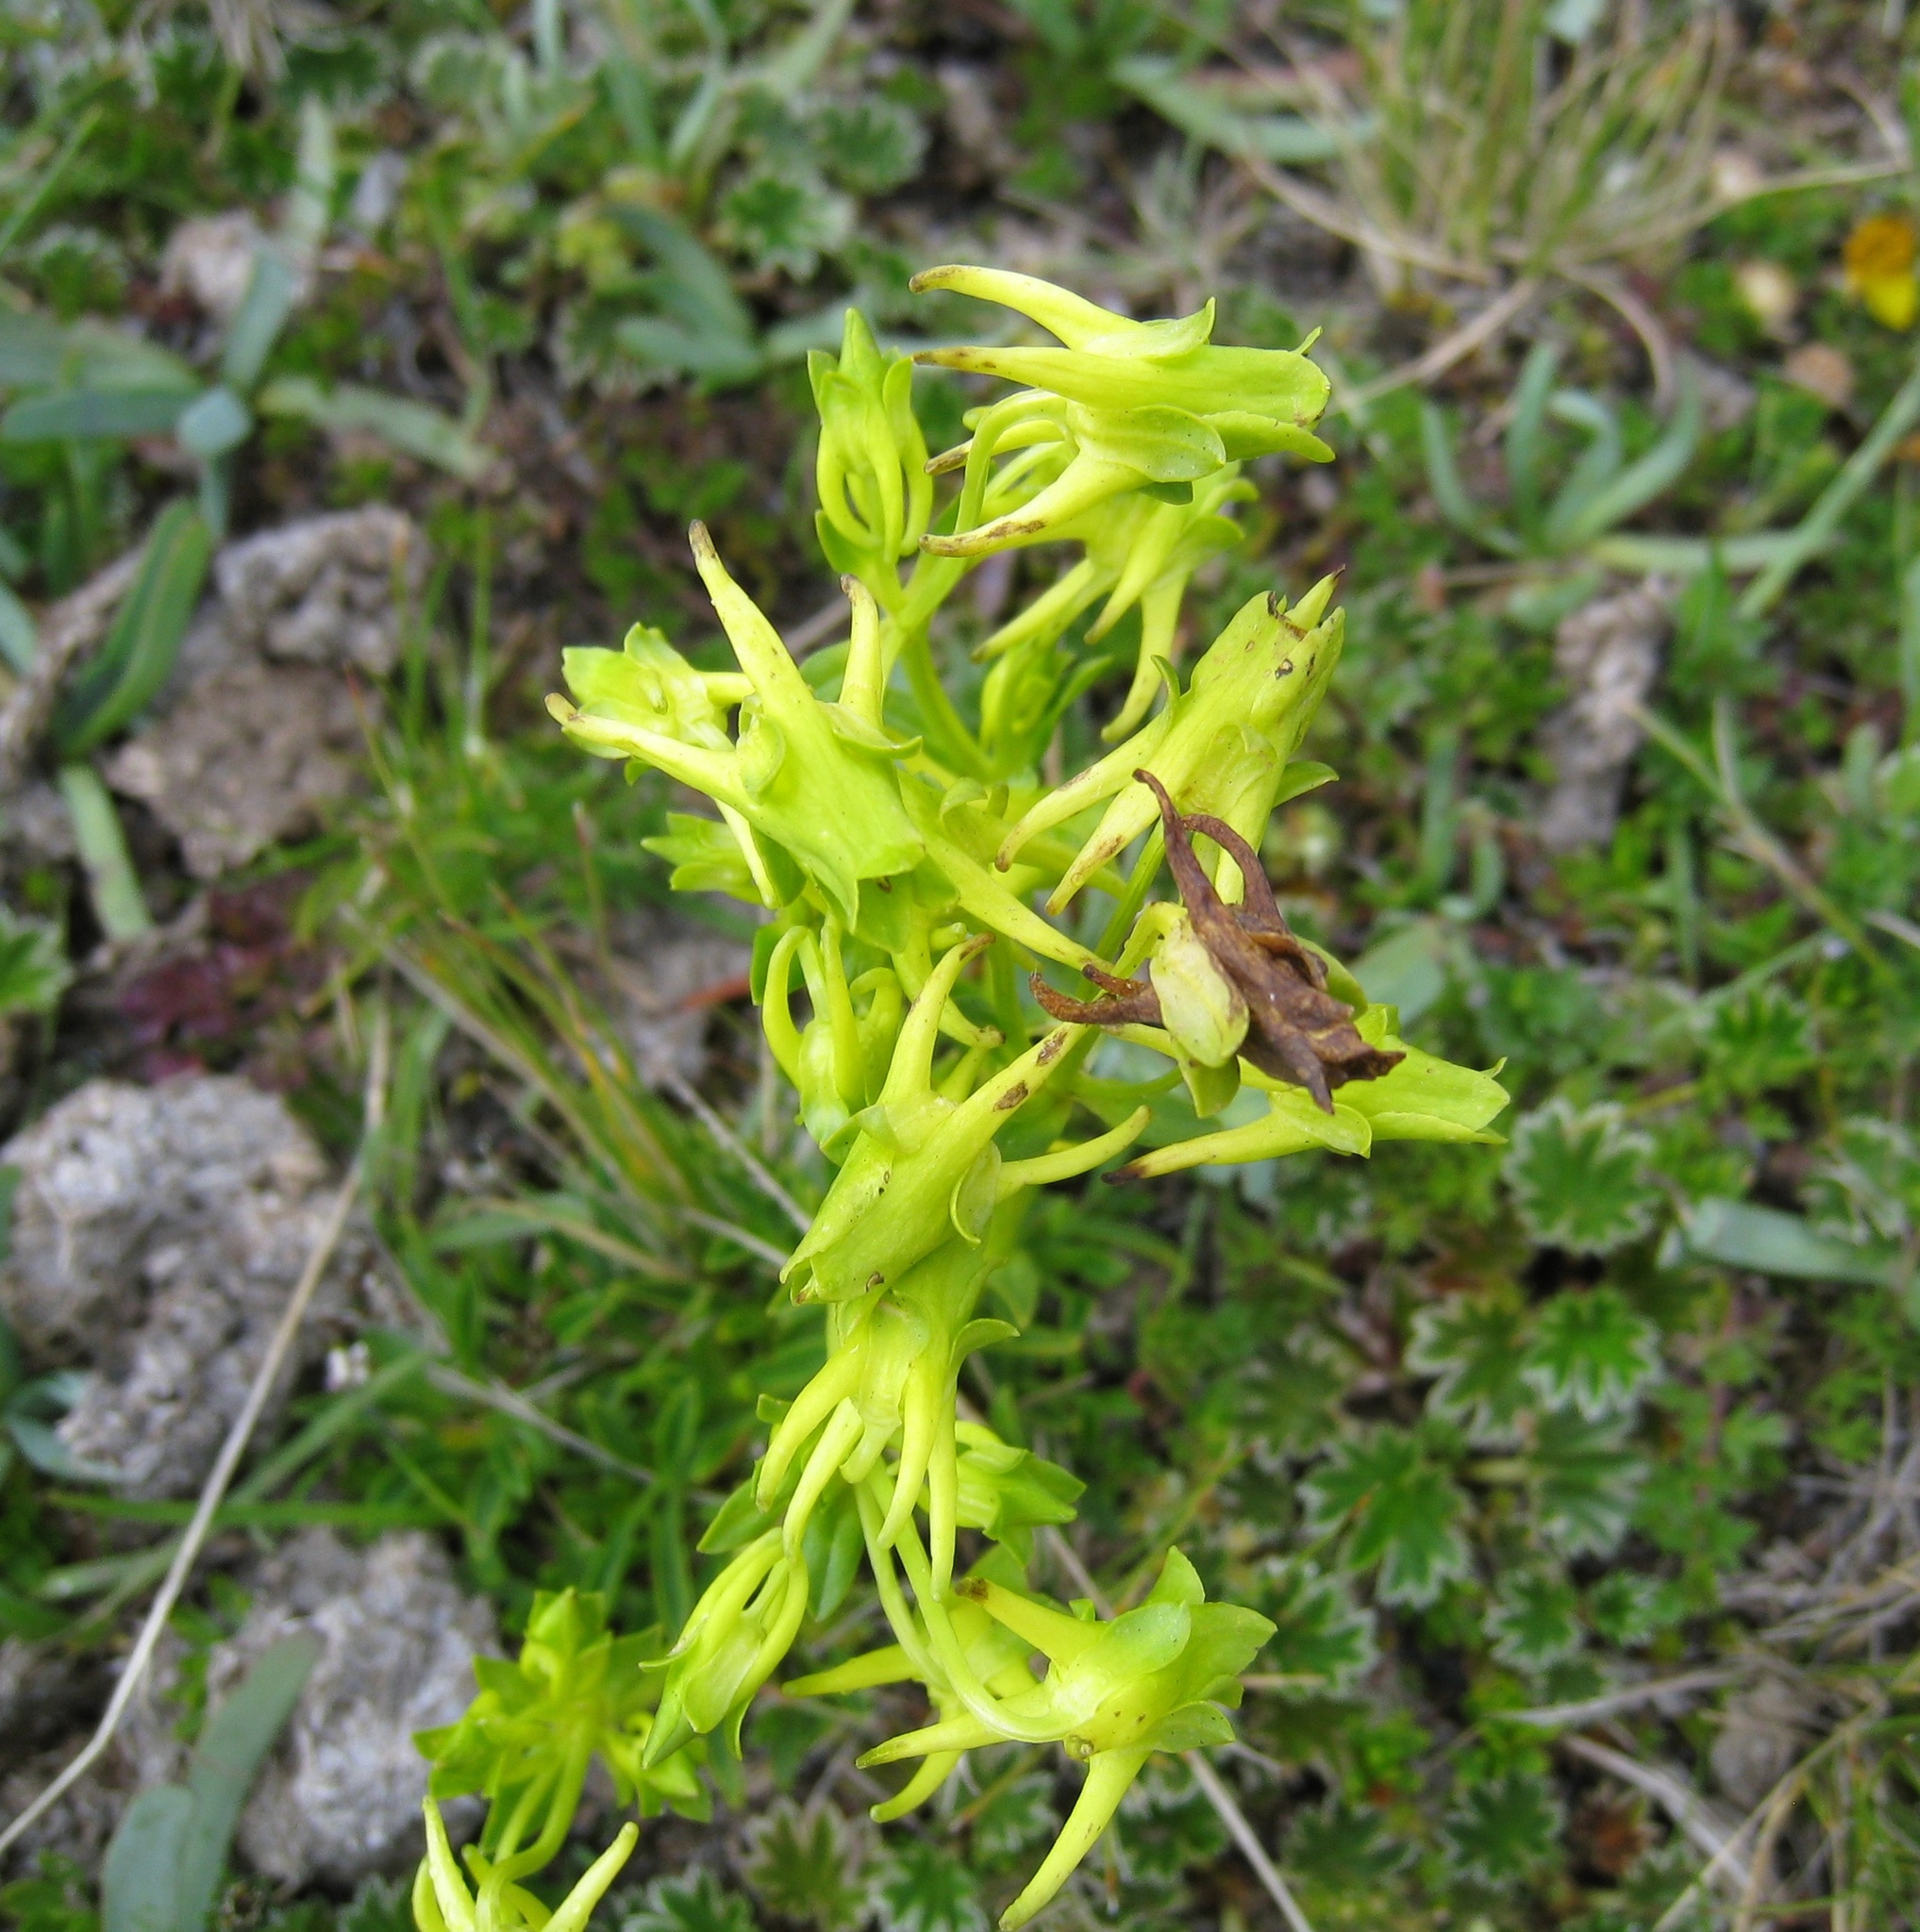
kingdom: Plantae
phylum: Tracheophyta
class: Magnoliopsida
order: Gentianales
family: Gentianaceae
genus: Halenia
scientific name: Halenia weddelliana
